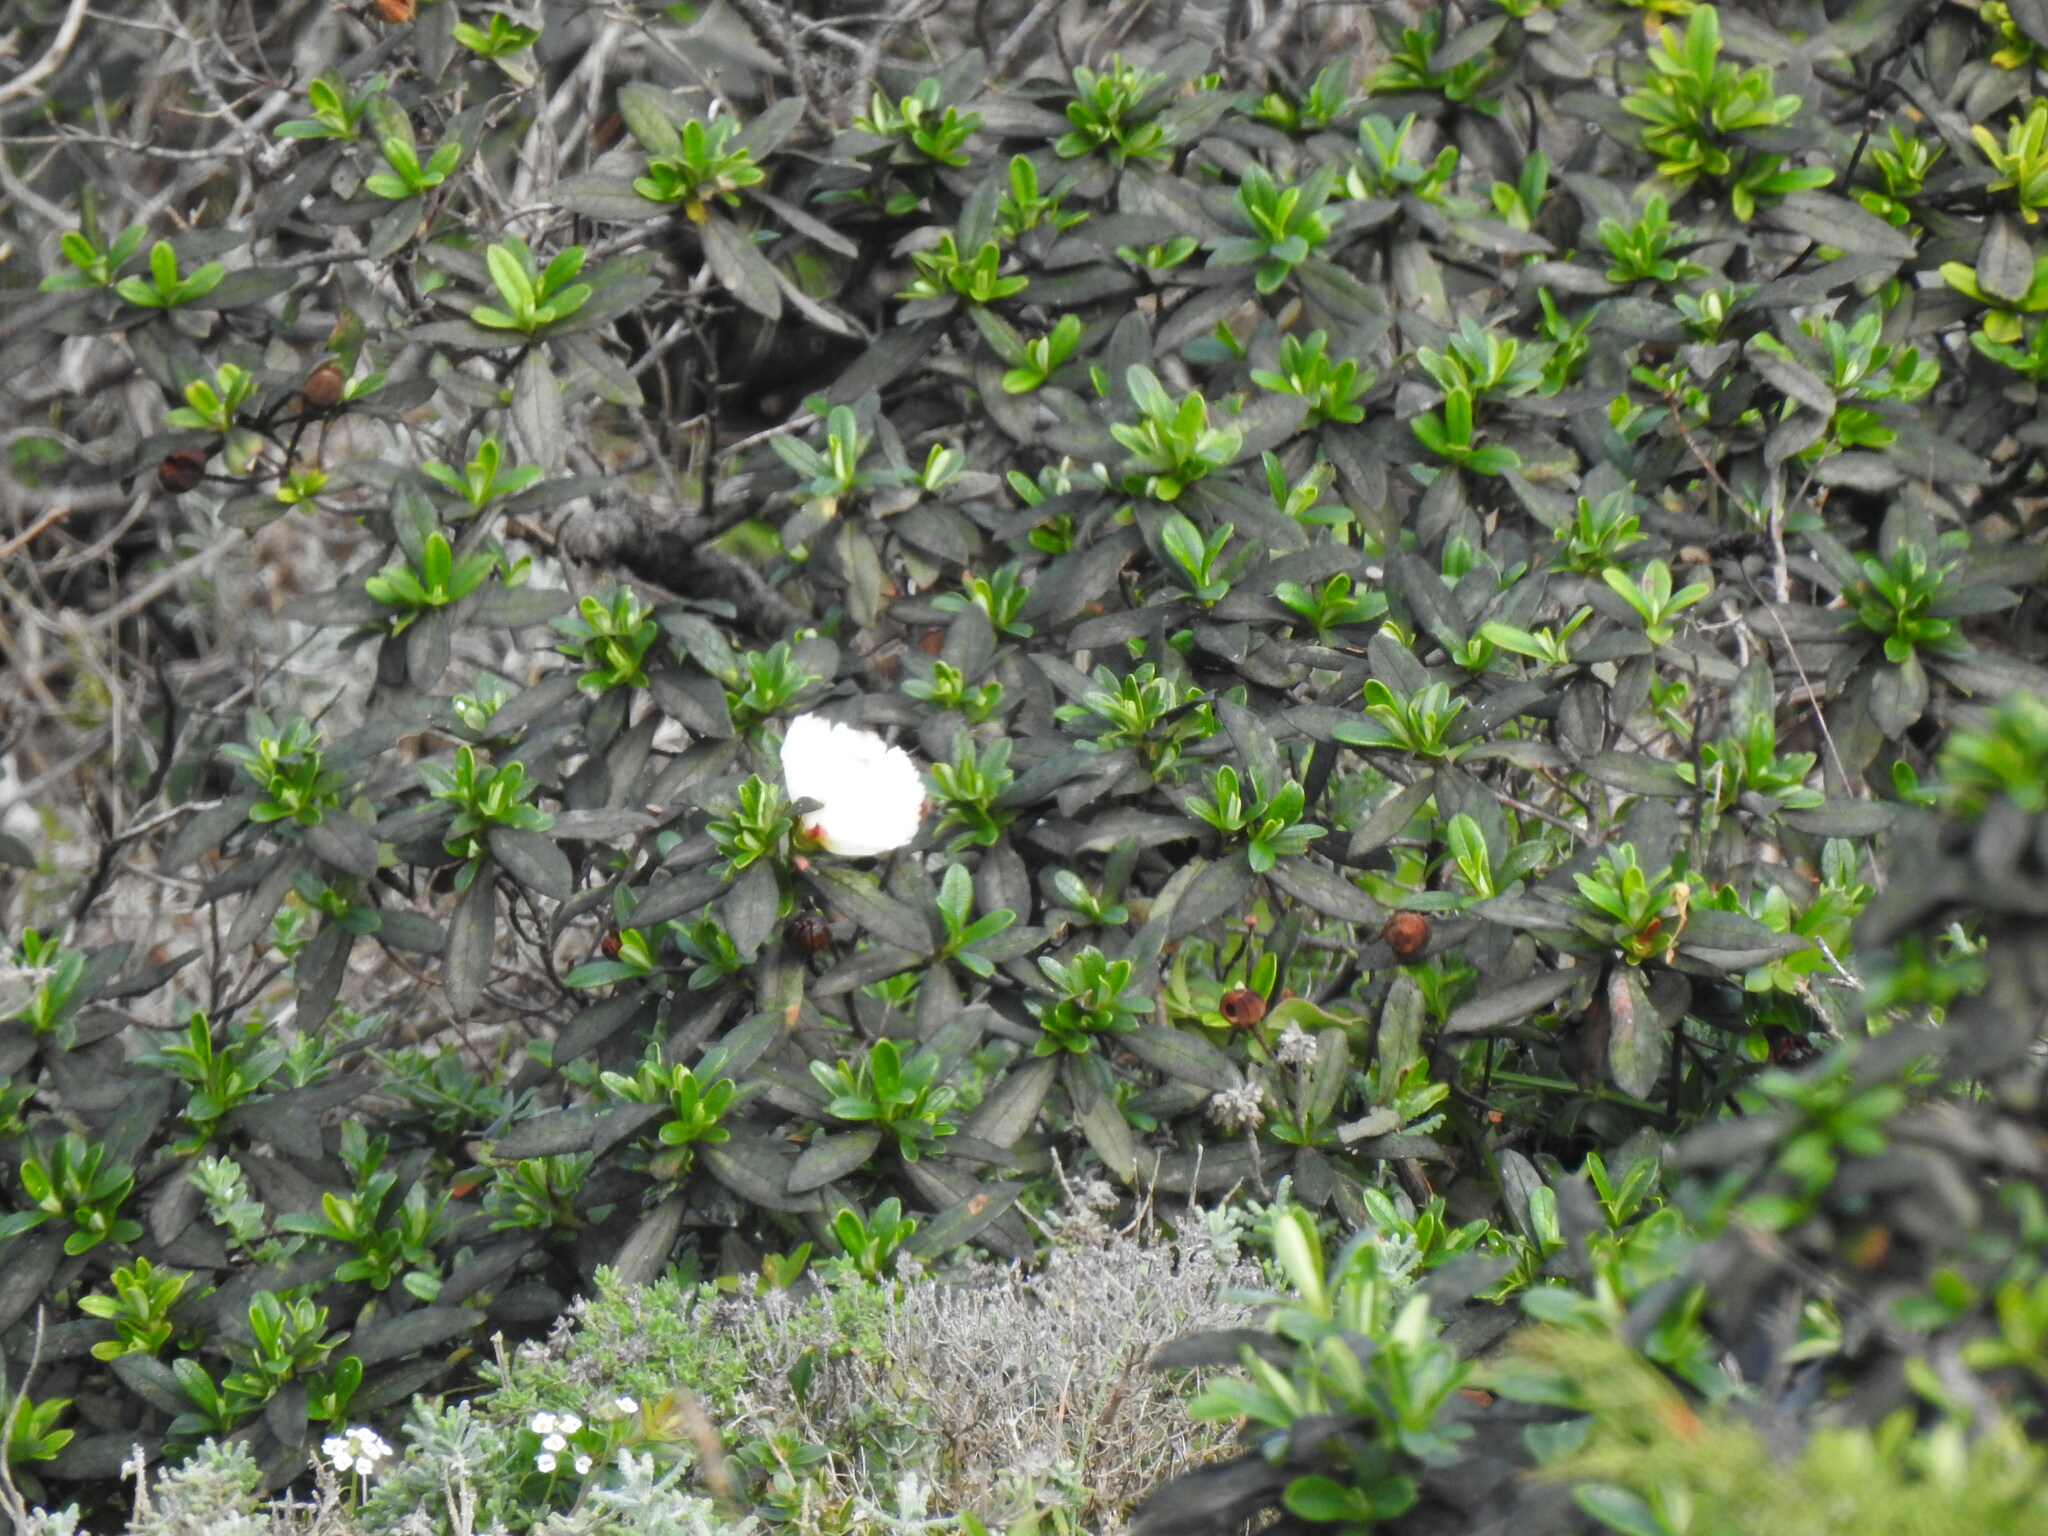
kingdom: Plantae
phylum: Tracheophyta
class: Magnoliopsida
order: Malvales
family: Cistaceae
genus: Cistus
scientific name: Cistus ladanifer
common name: Common gum cistus
